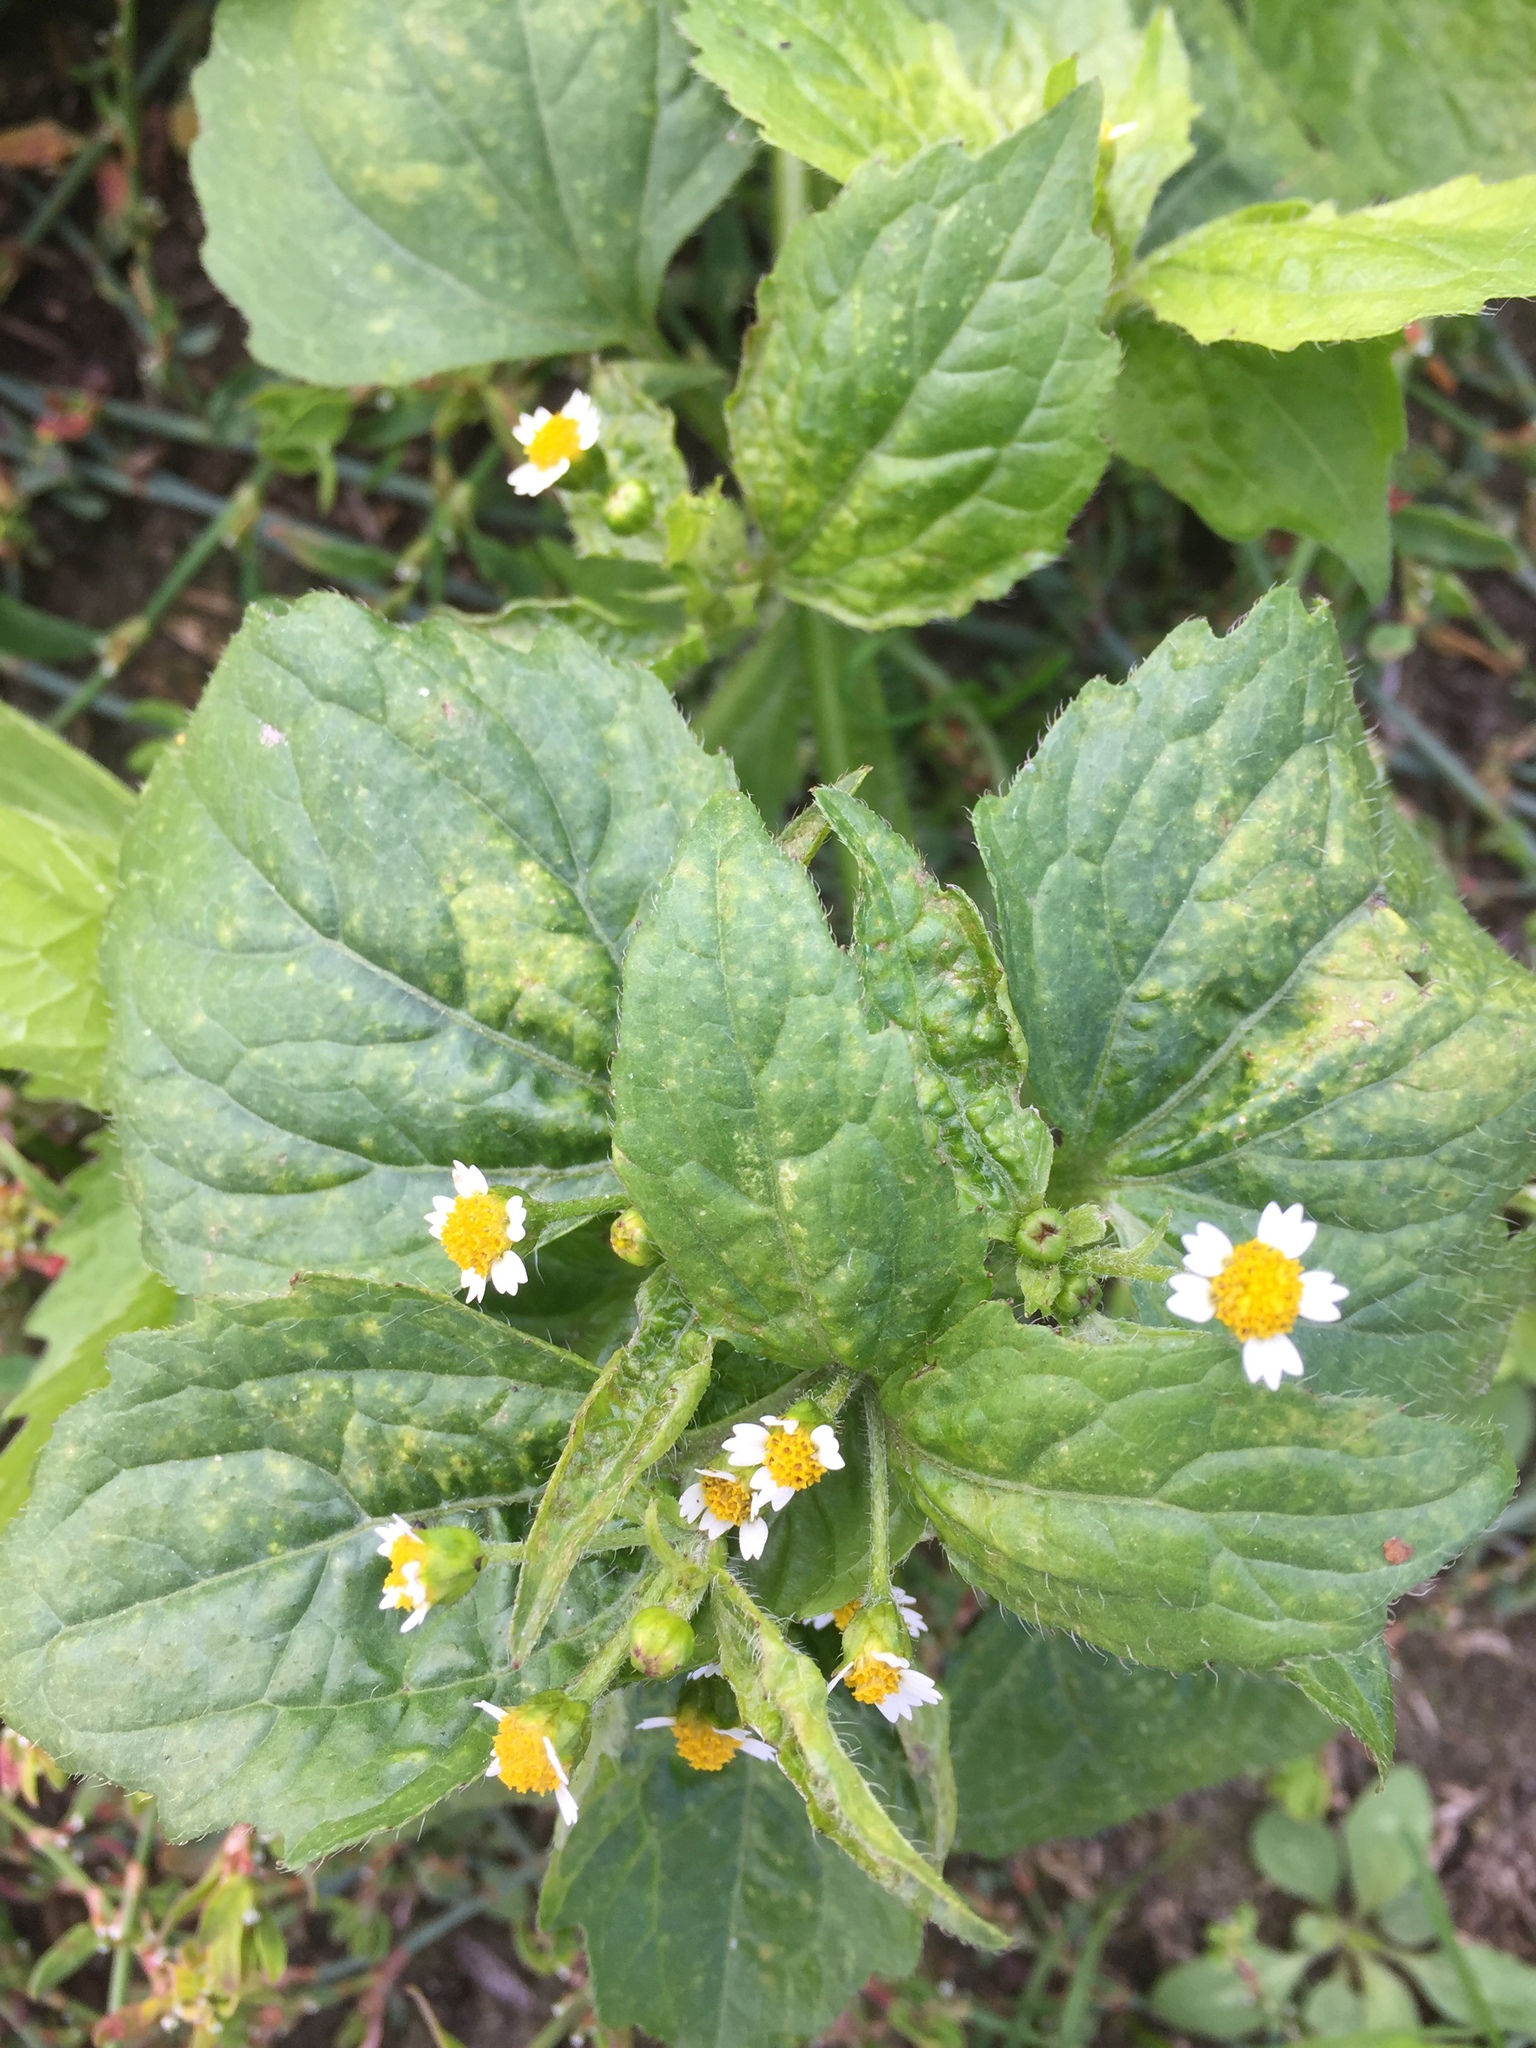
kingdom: Plantae
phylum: Tracheophyta
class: Magnoliopsida
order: Asterales
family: Asteraceae
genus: Galinsoga
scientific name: Galinsoga quadriradiata
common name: Shaggy soldier
